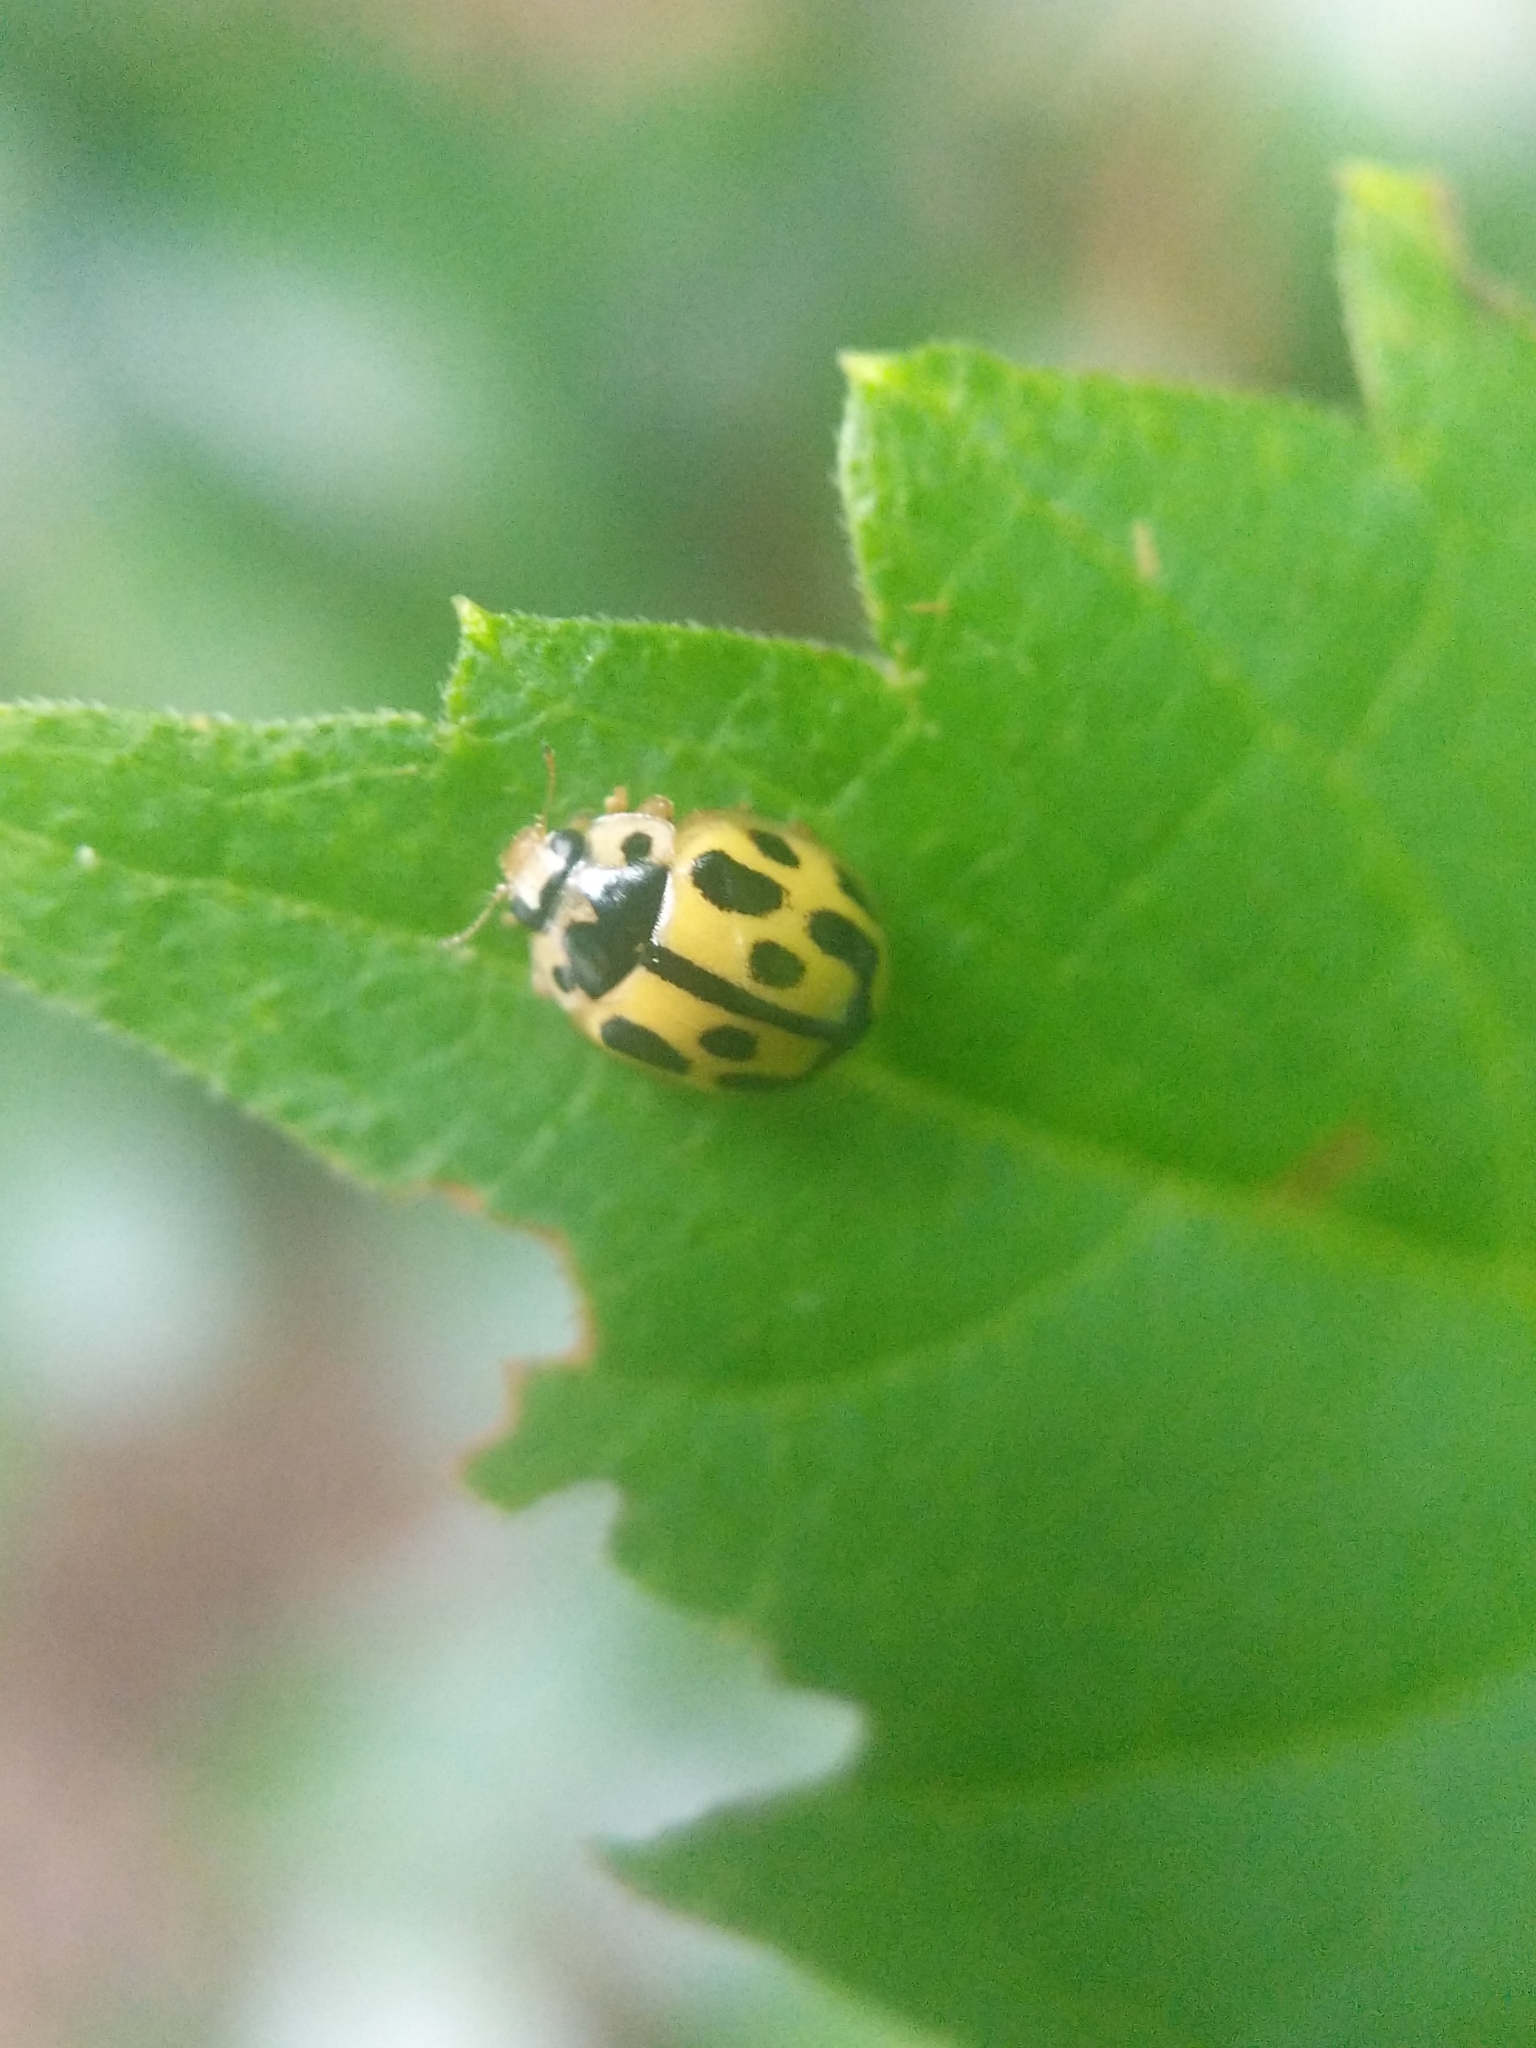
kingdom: Animalia
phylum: Arthropoda
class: Insecta
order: Coleoptera
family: Coccinellidae
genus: Propylaea
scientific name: Propylaea quatuordecimpunctata
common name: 14-spotted ladybird beetle
